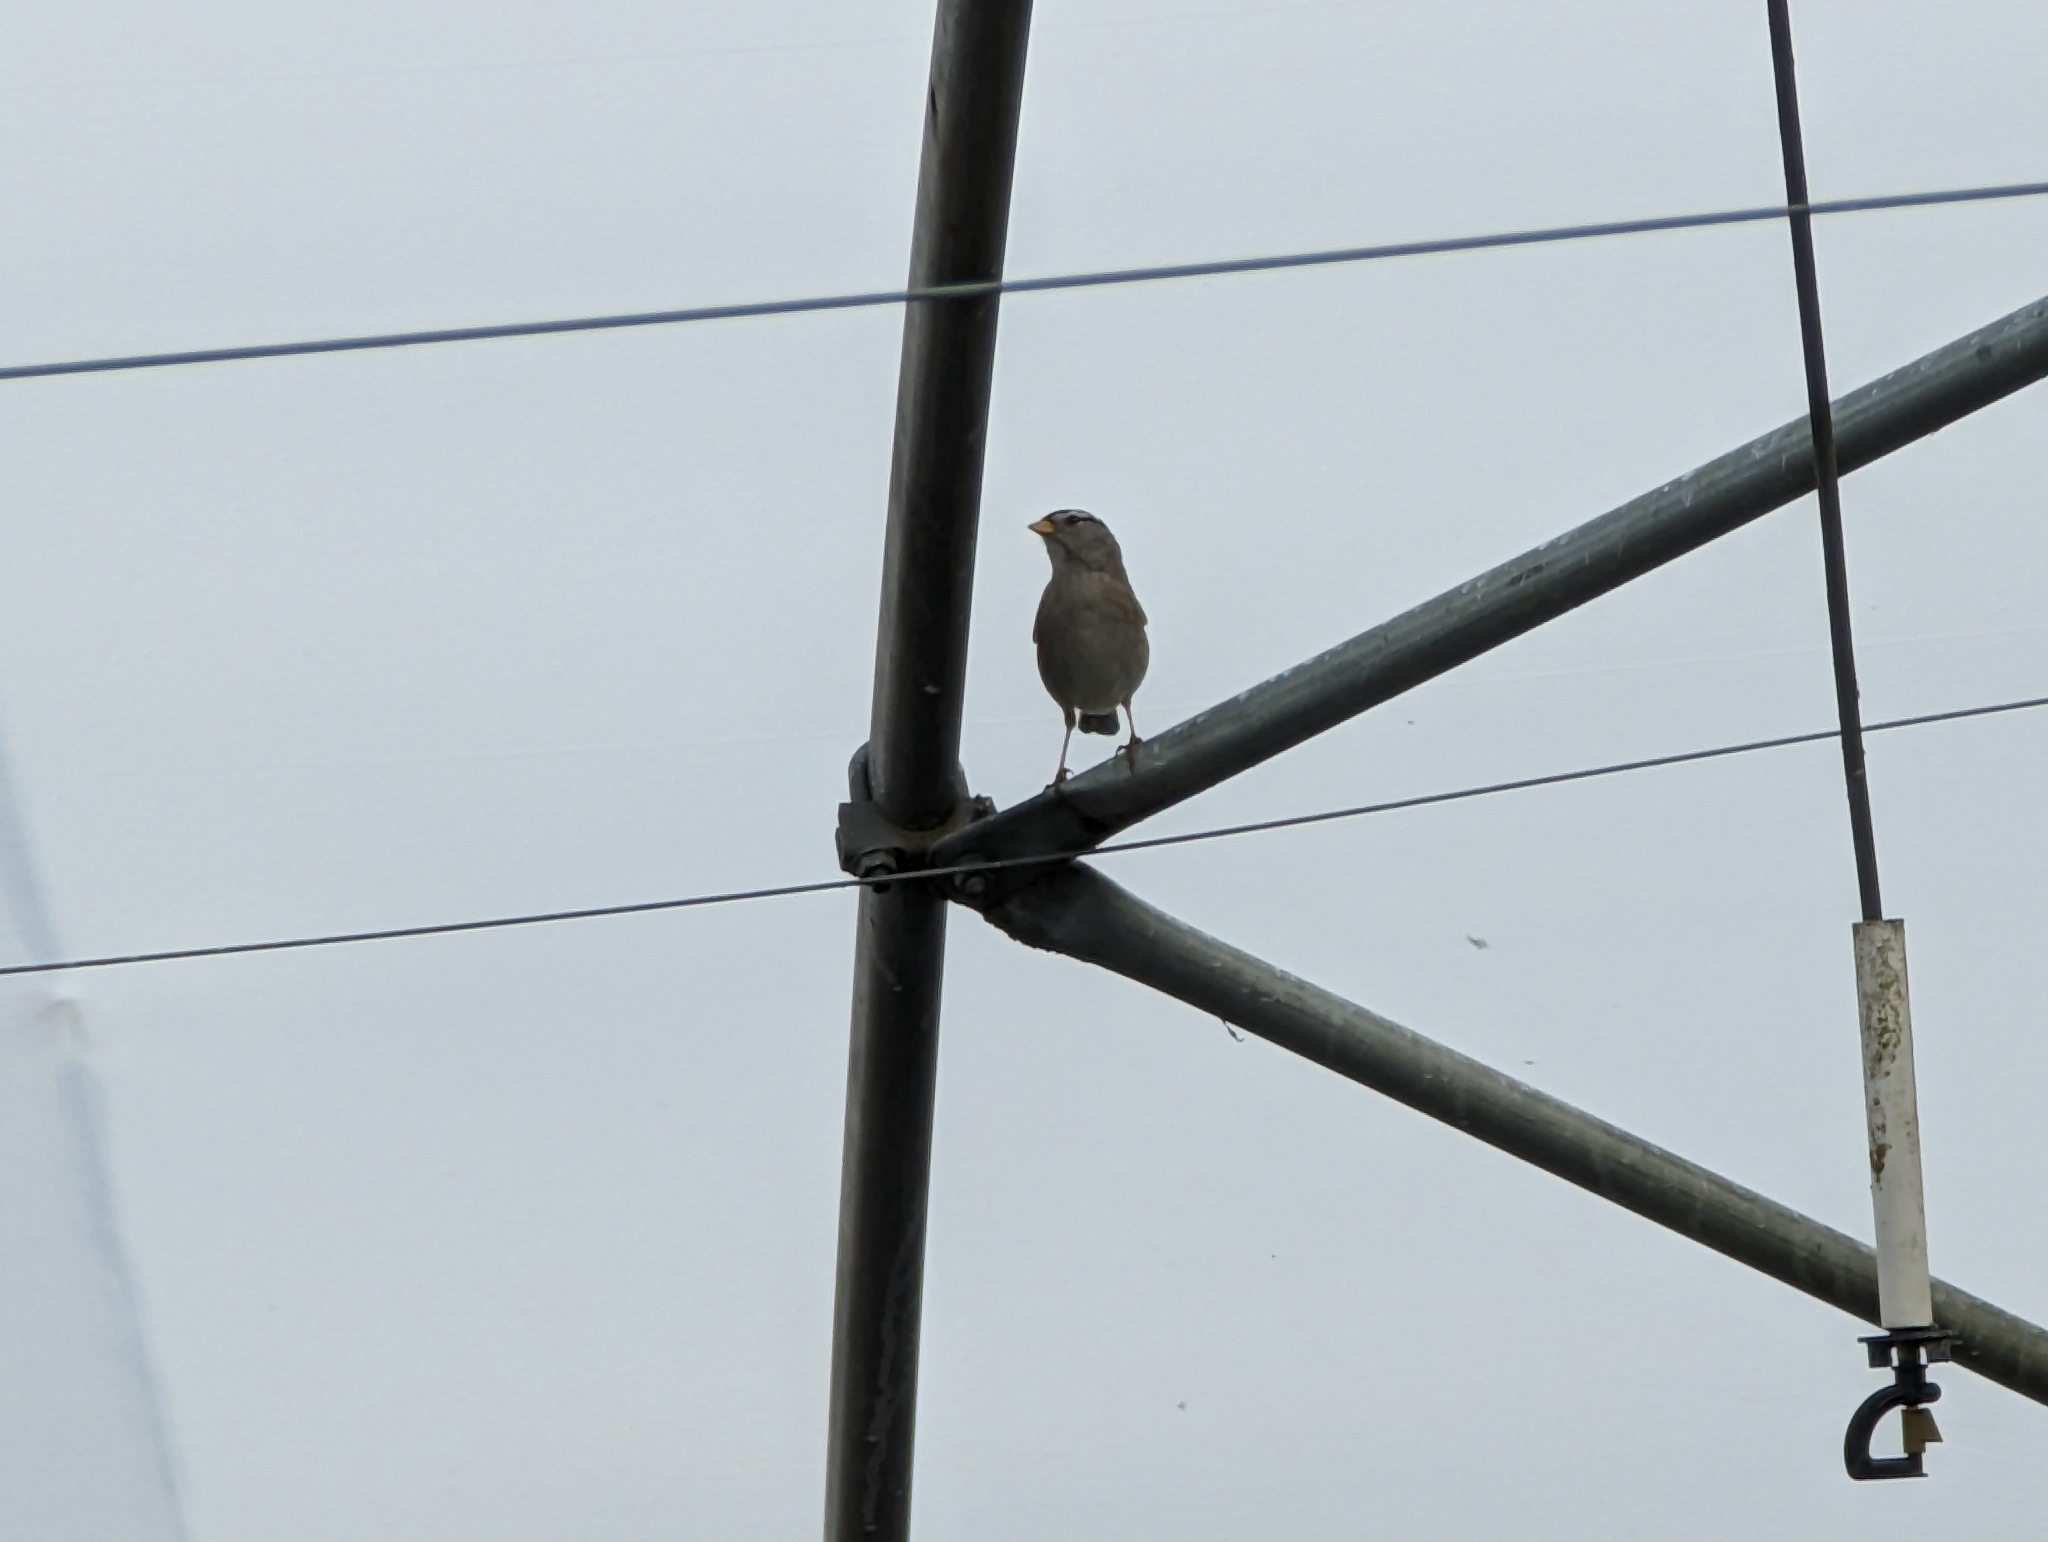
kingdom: Animalia
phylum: Chordata
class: Aves
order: Passeriformes
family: Passerellidae
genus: Zonotrichia
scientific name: Zonotrichia leucophrys
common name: White-crowned sparrow
